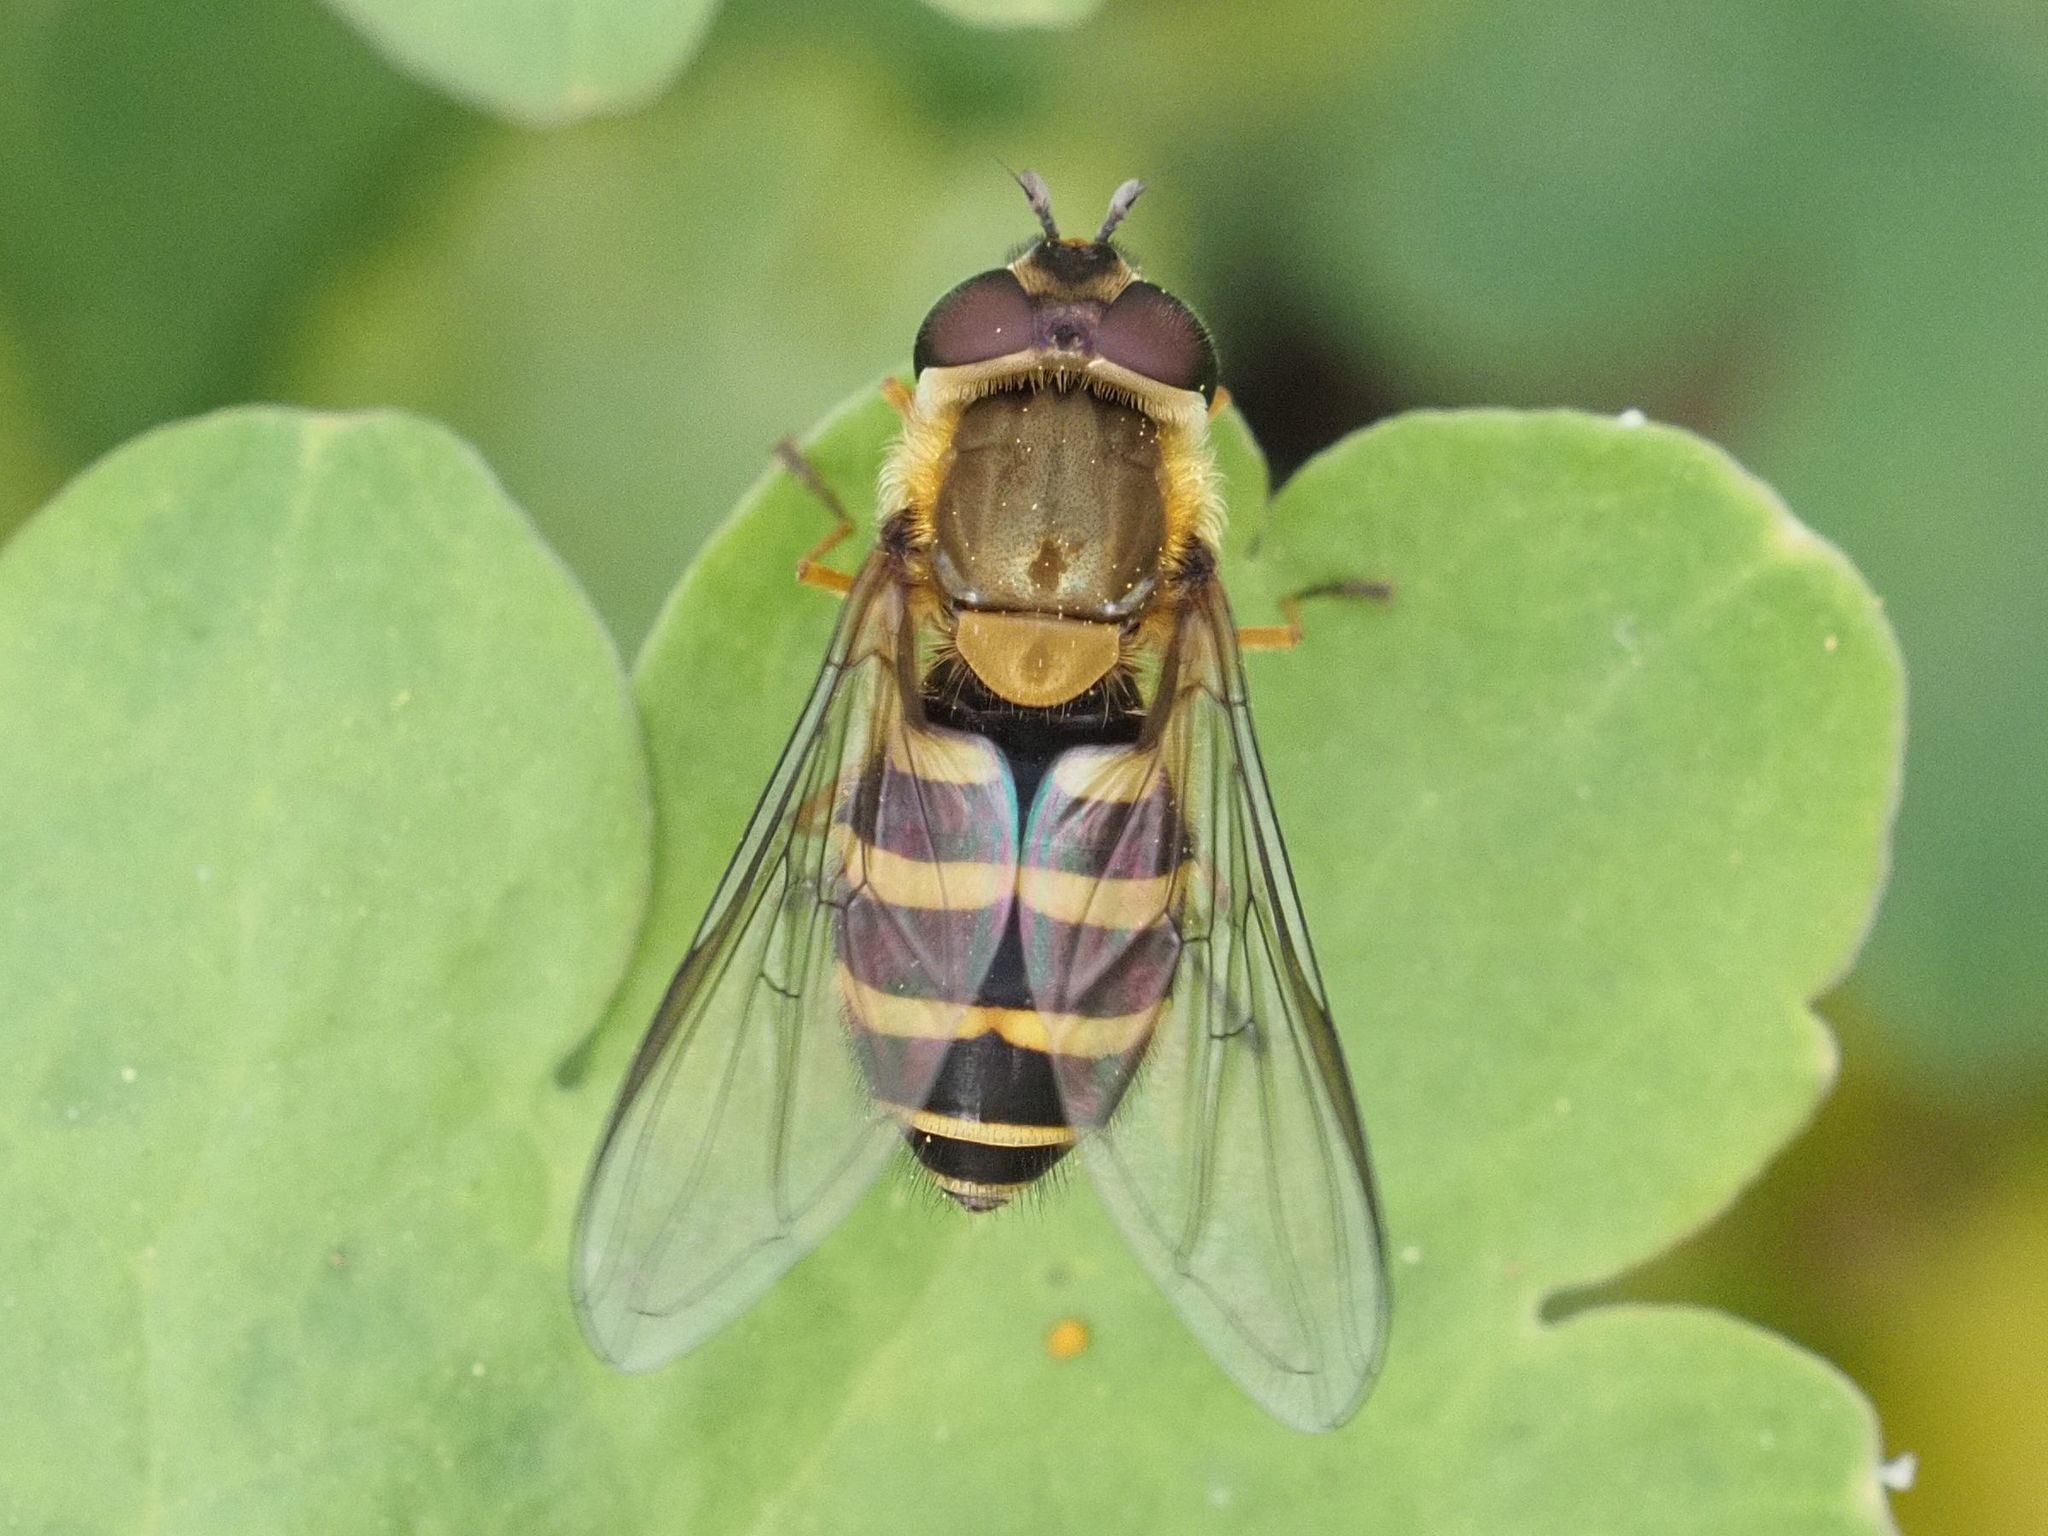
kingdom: Animalia
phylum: Arthropoda
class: Insecta
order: Diptera
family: Syrphidae
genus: Syrphus
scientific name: Syrphus torvus
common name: Hairy-eyed flower fly
